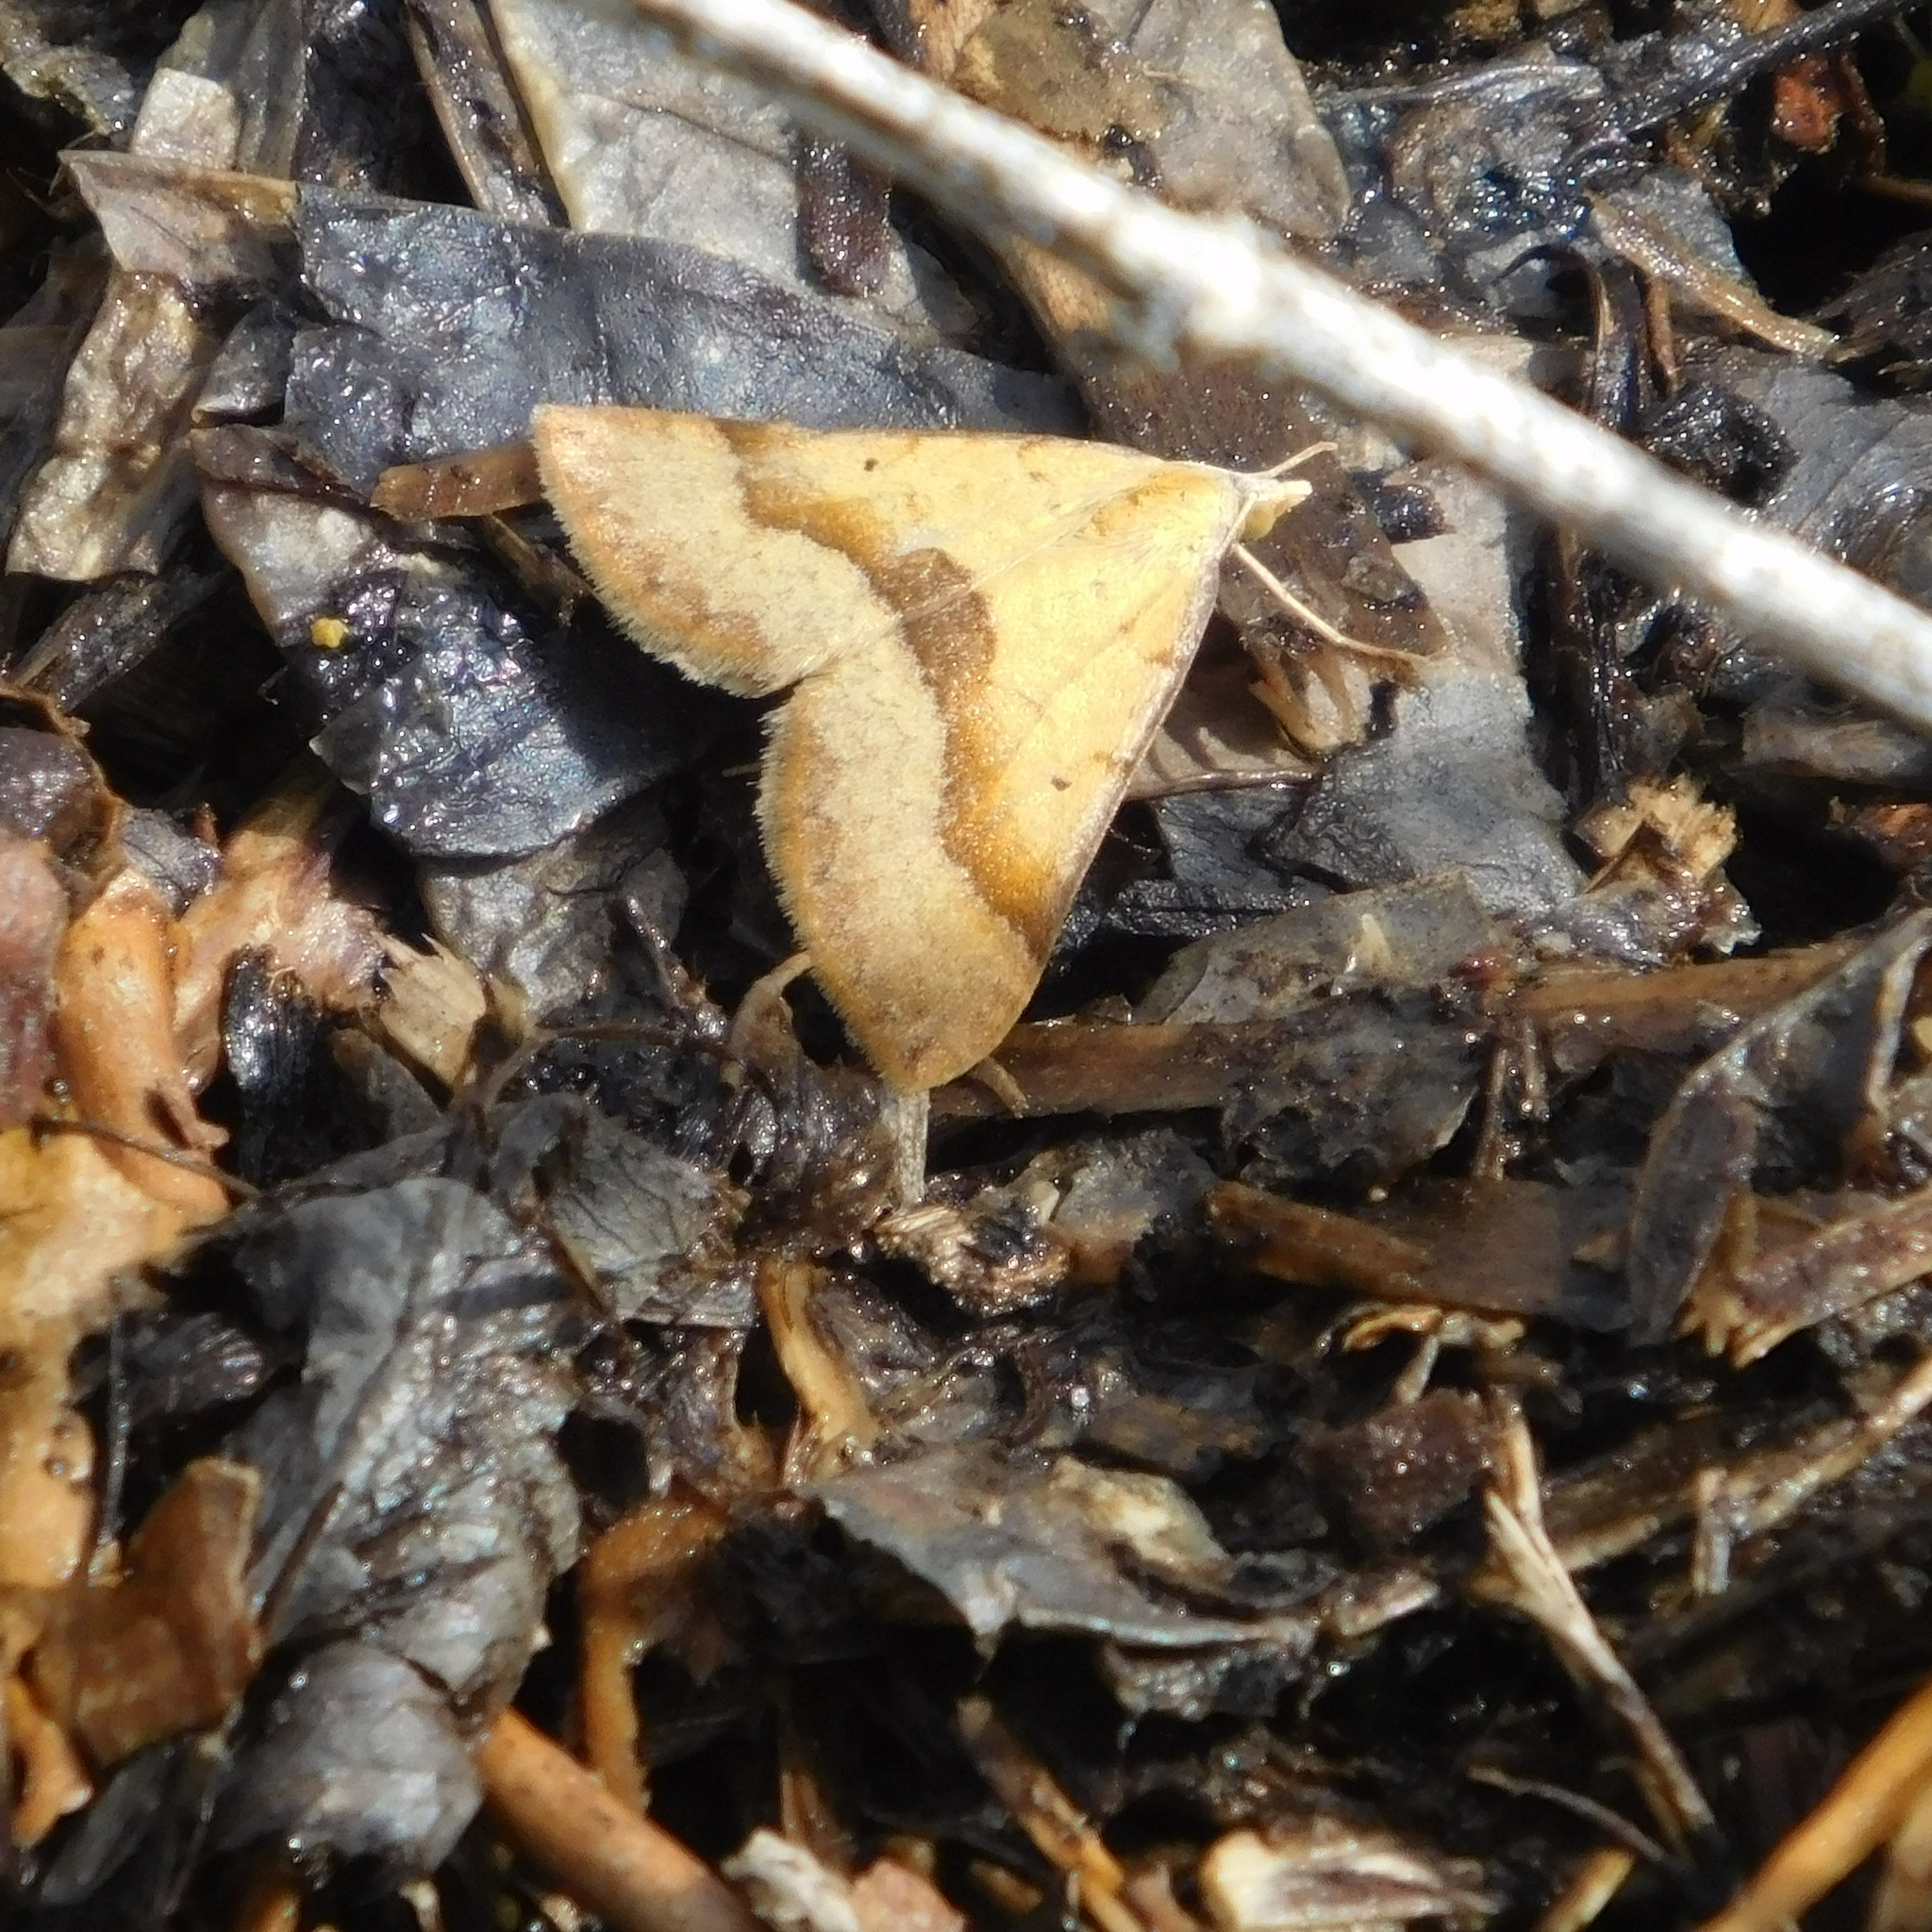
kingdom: Animalia
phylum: Arthropoda
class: Insecta
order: Lepidoptera
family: Geometridae
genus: Anachloris
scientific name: Anachloris subochraria
